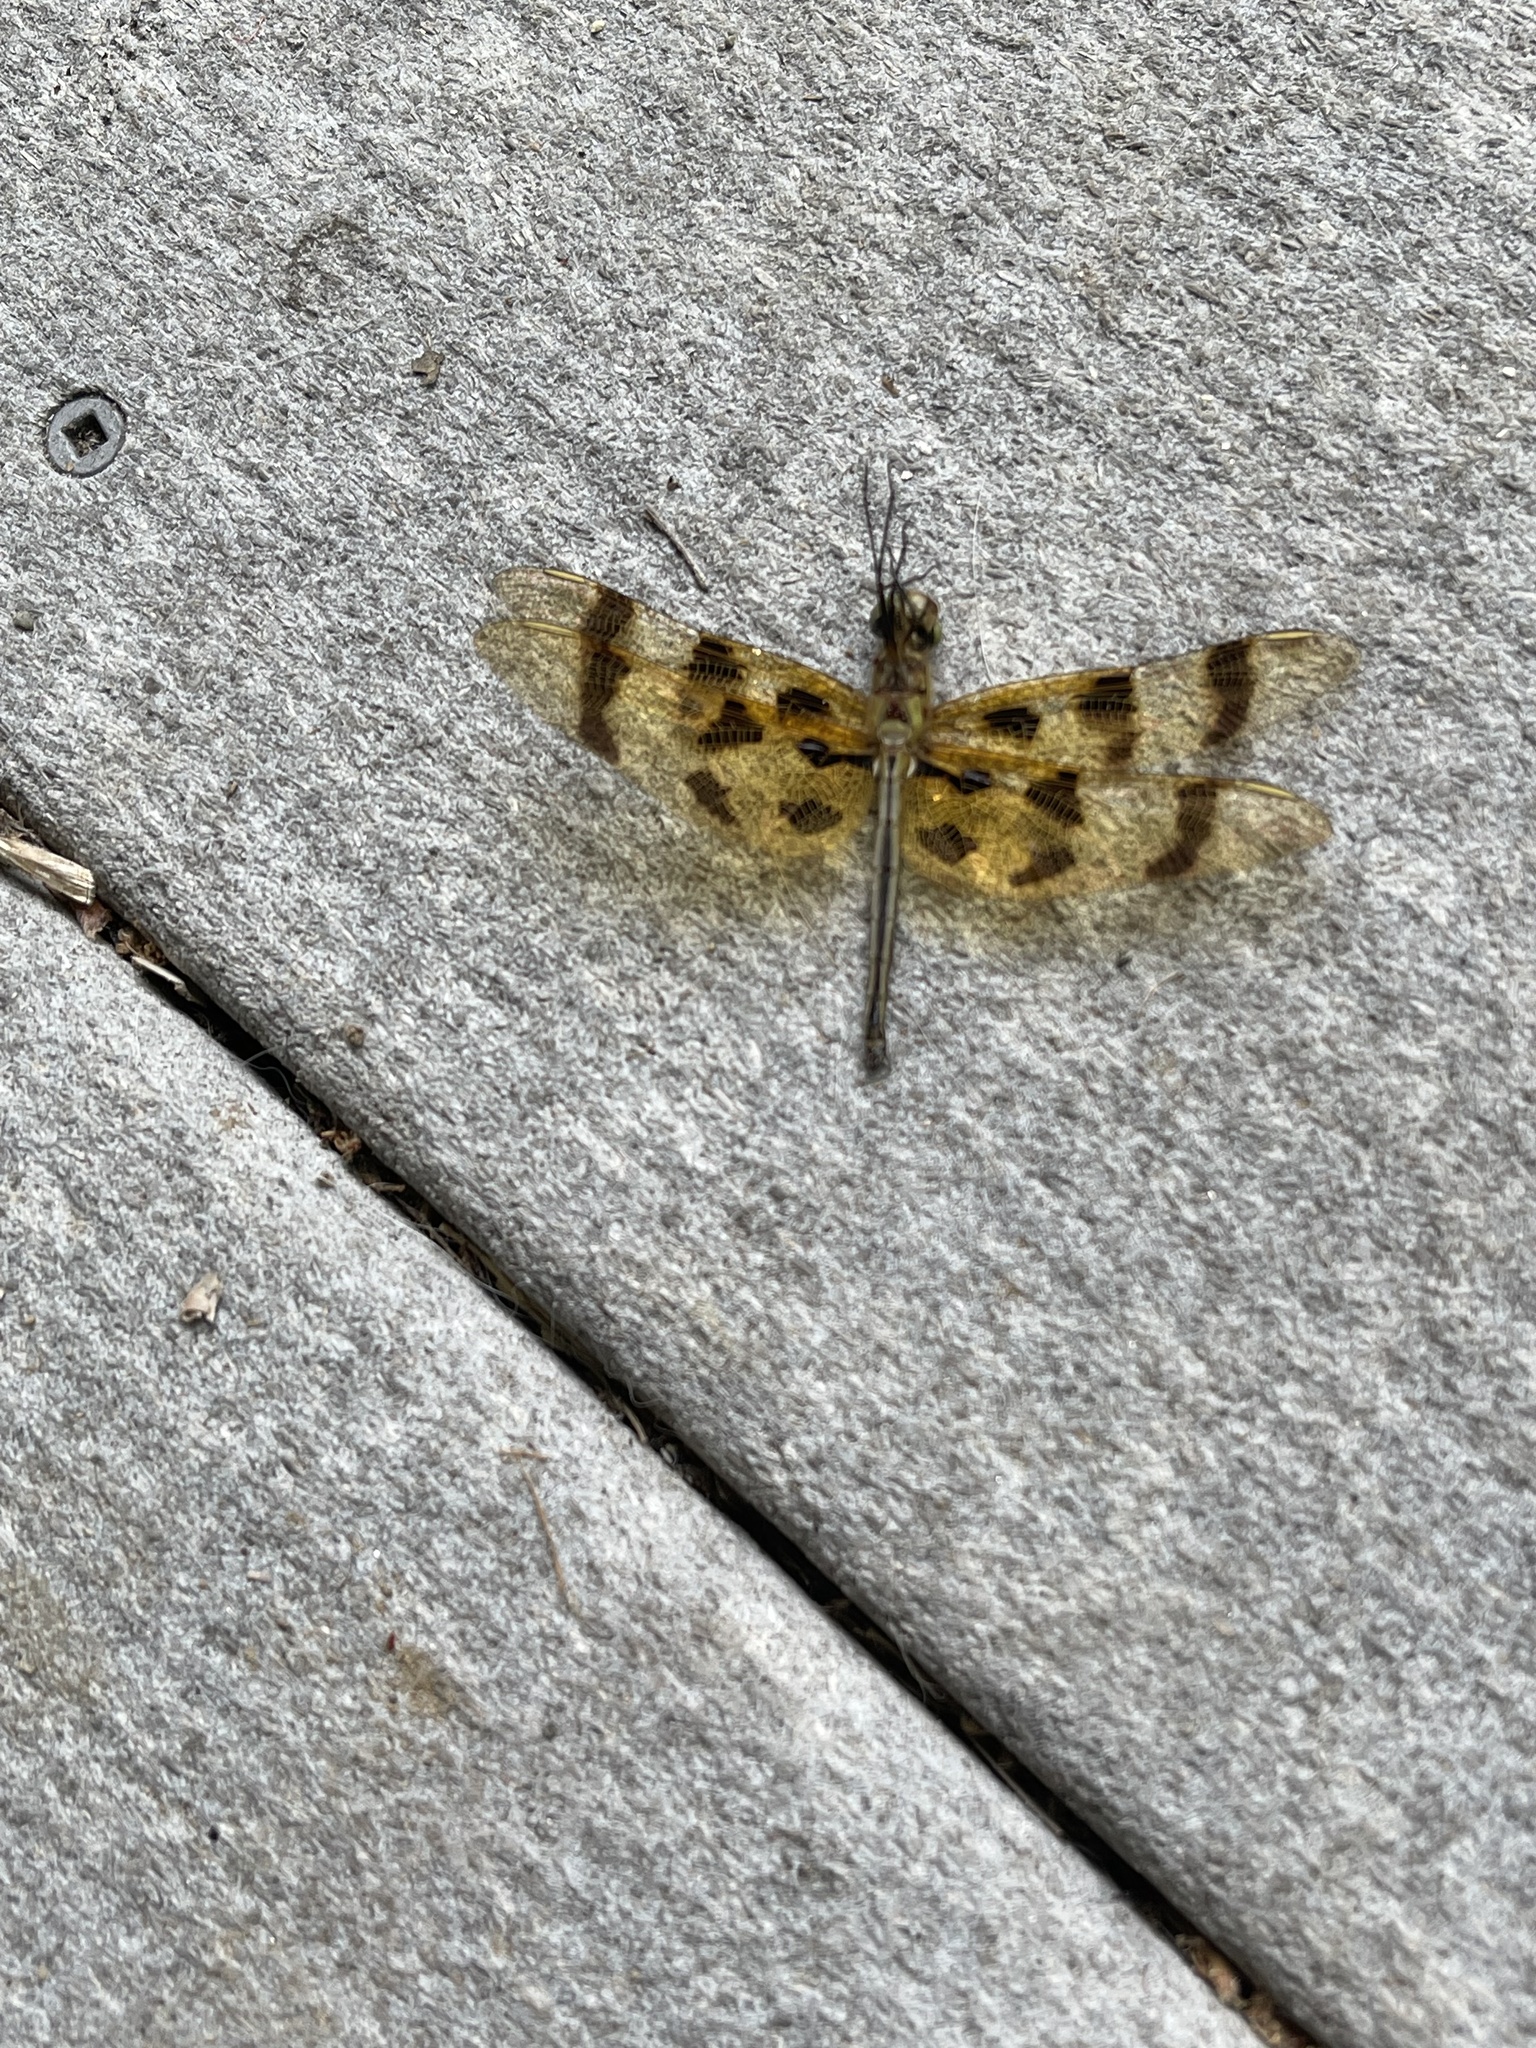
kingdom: Animalia
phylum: Arthropoda
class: Insecta
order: Odonata
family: Libellulidae
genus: Celithemis
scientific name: Celithemis eponina
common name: Halloween pennant
